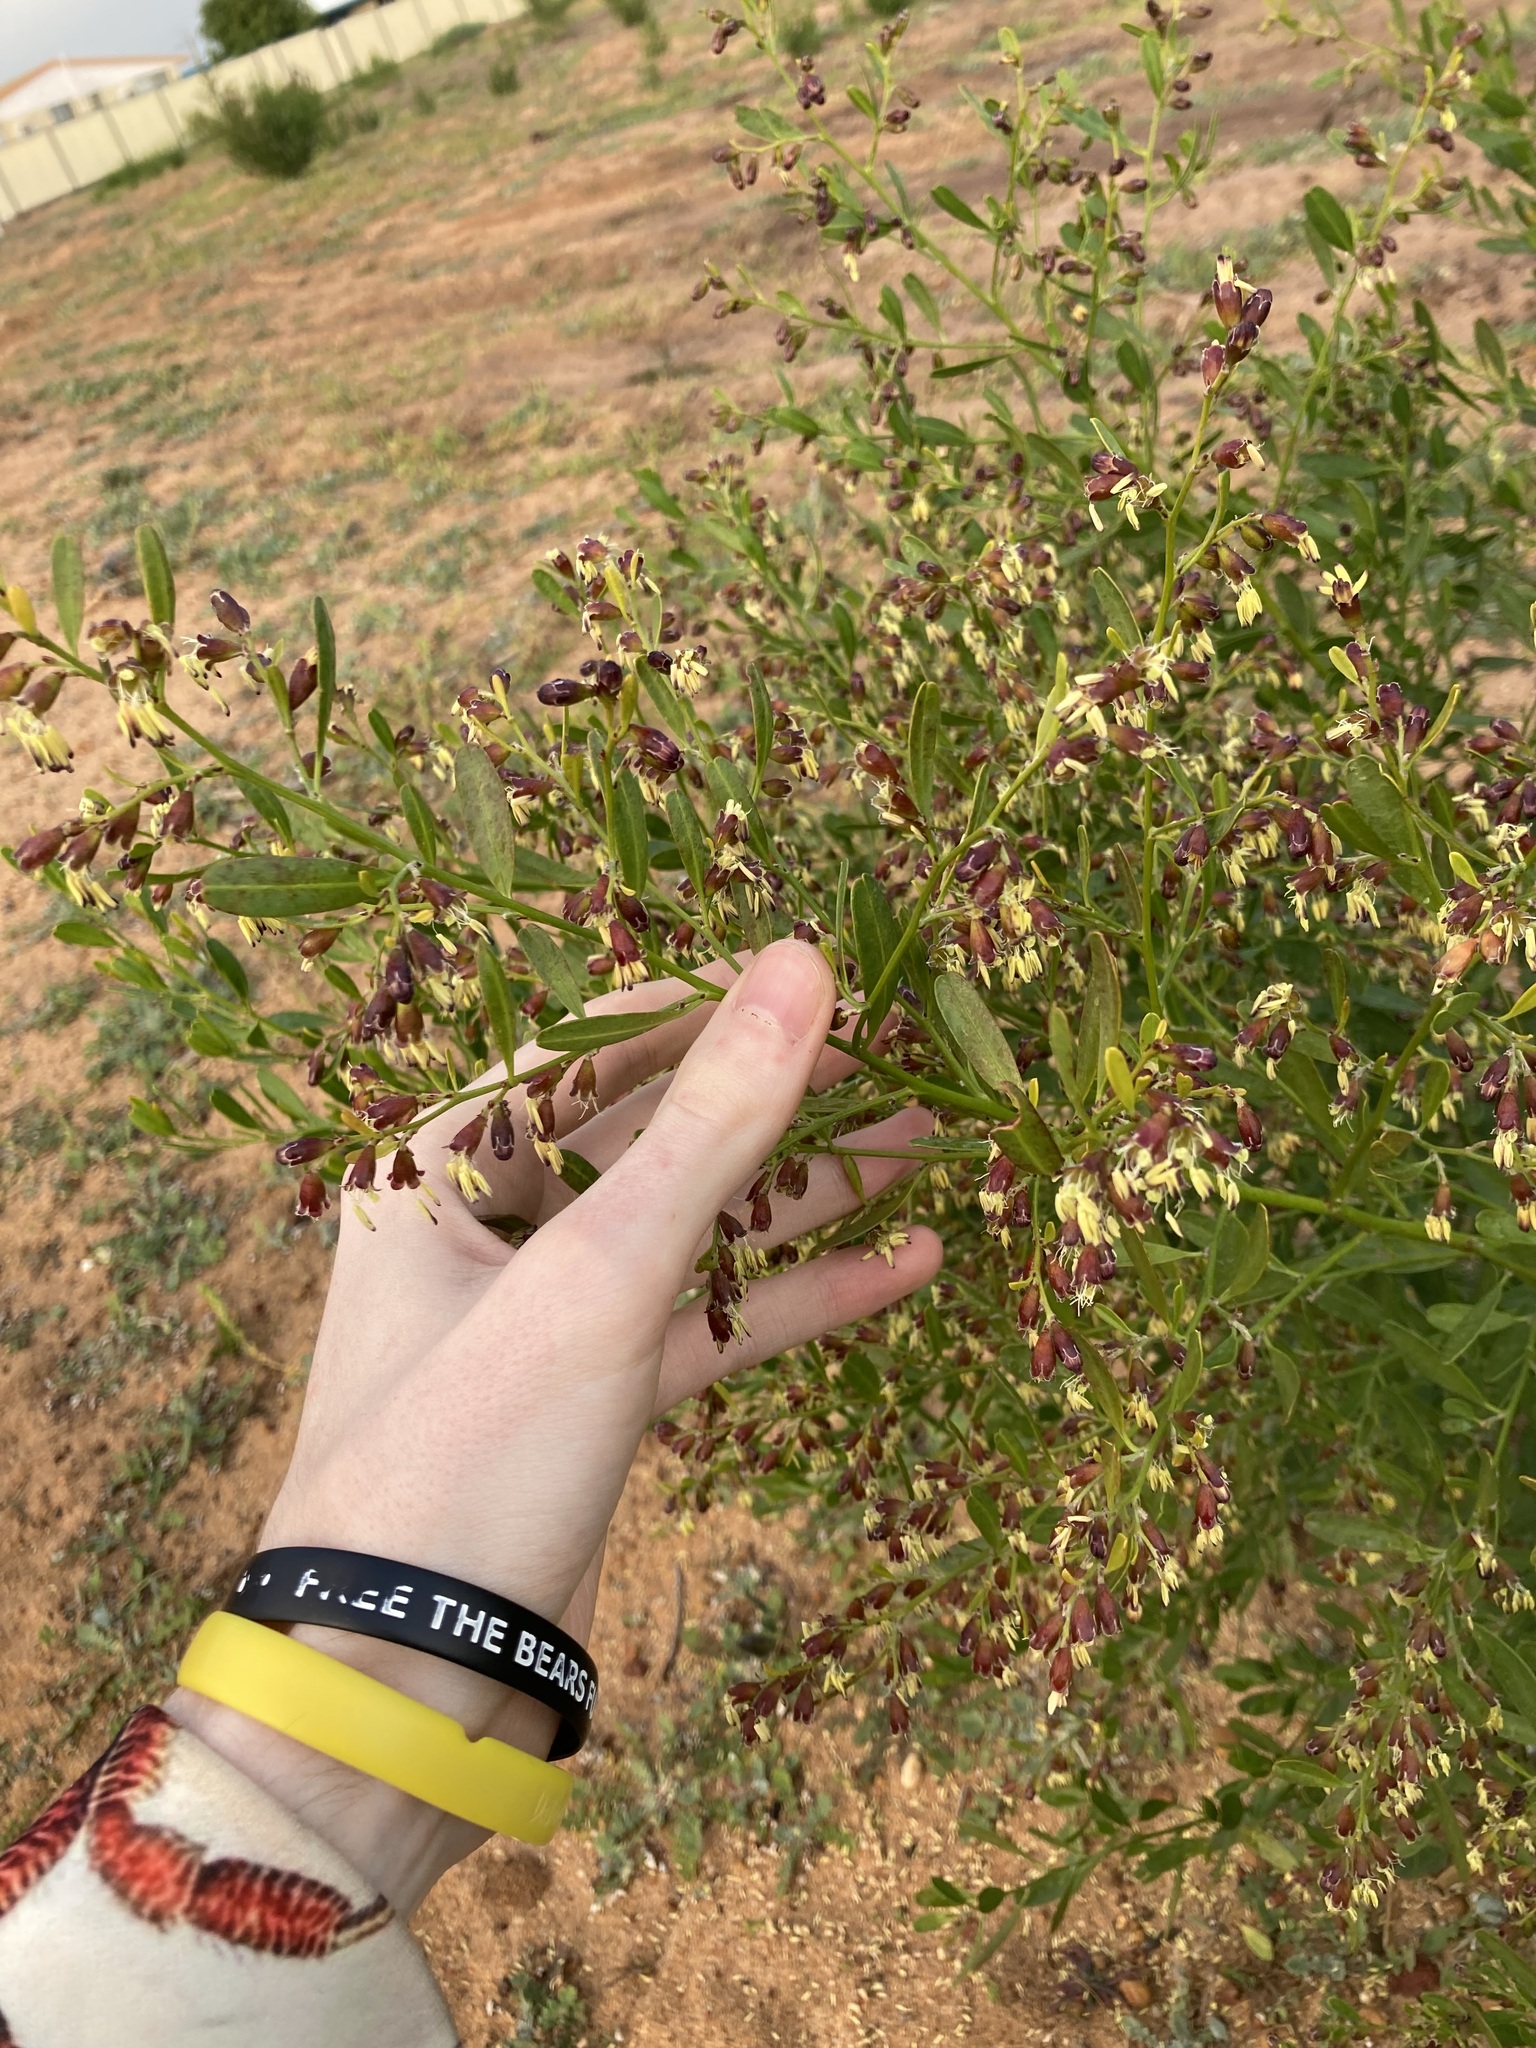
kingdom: Plantae
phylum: Tracheophyta
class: Magnoliopsida
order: Fabales
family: Surianaceae
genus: Stylobasium
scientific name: Stylobasium spathulatum
